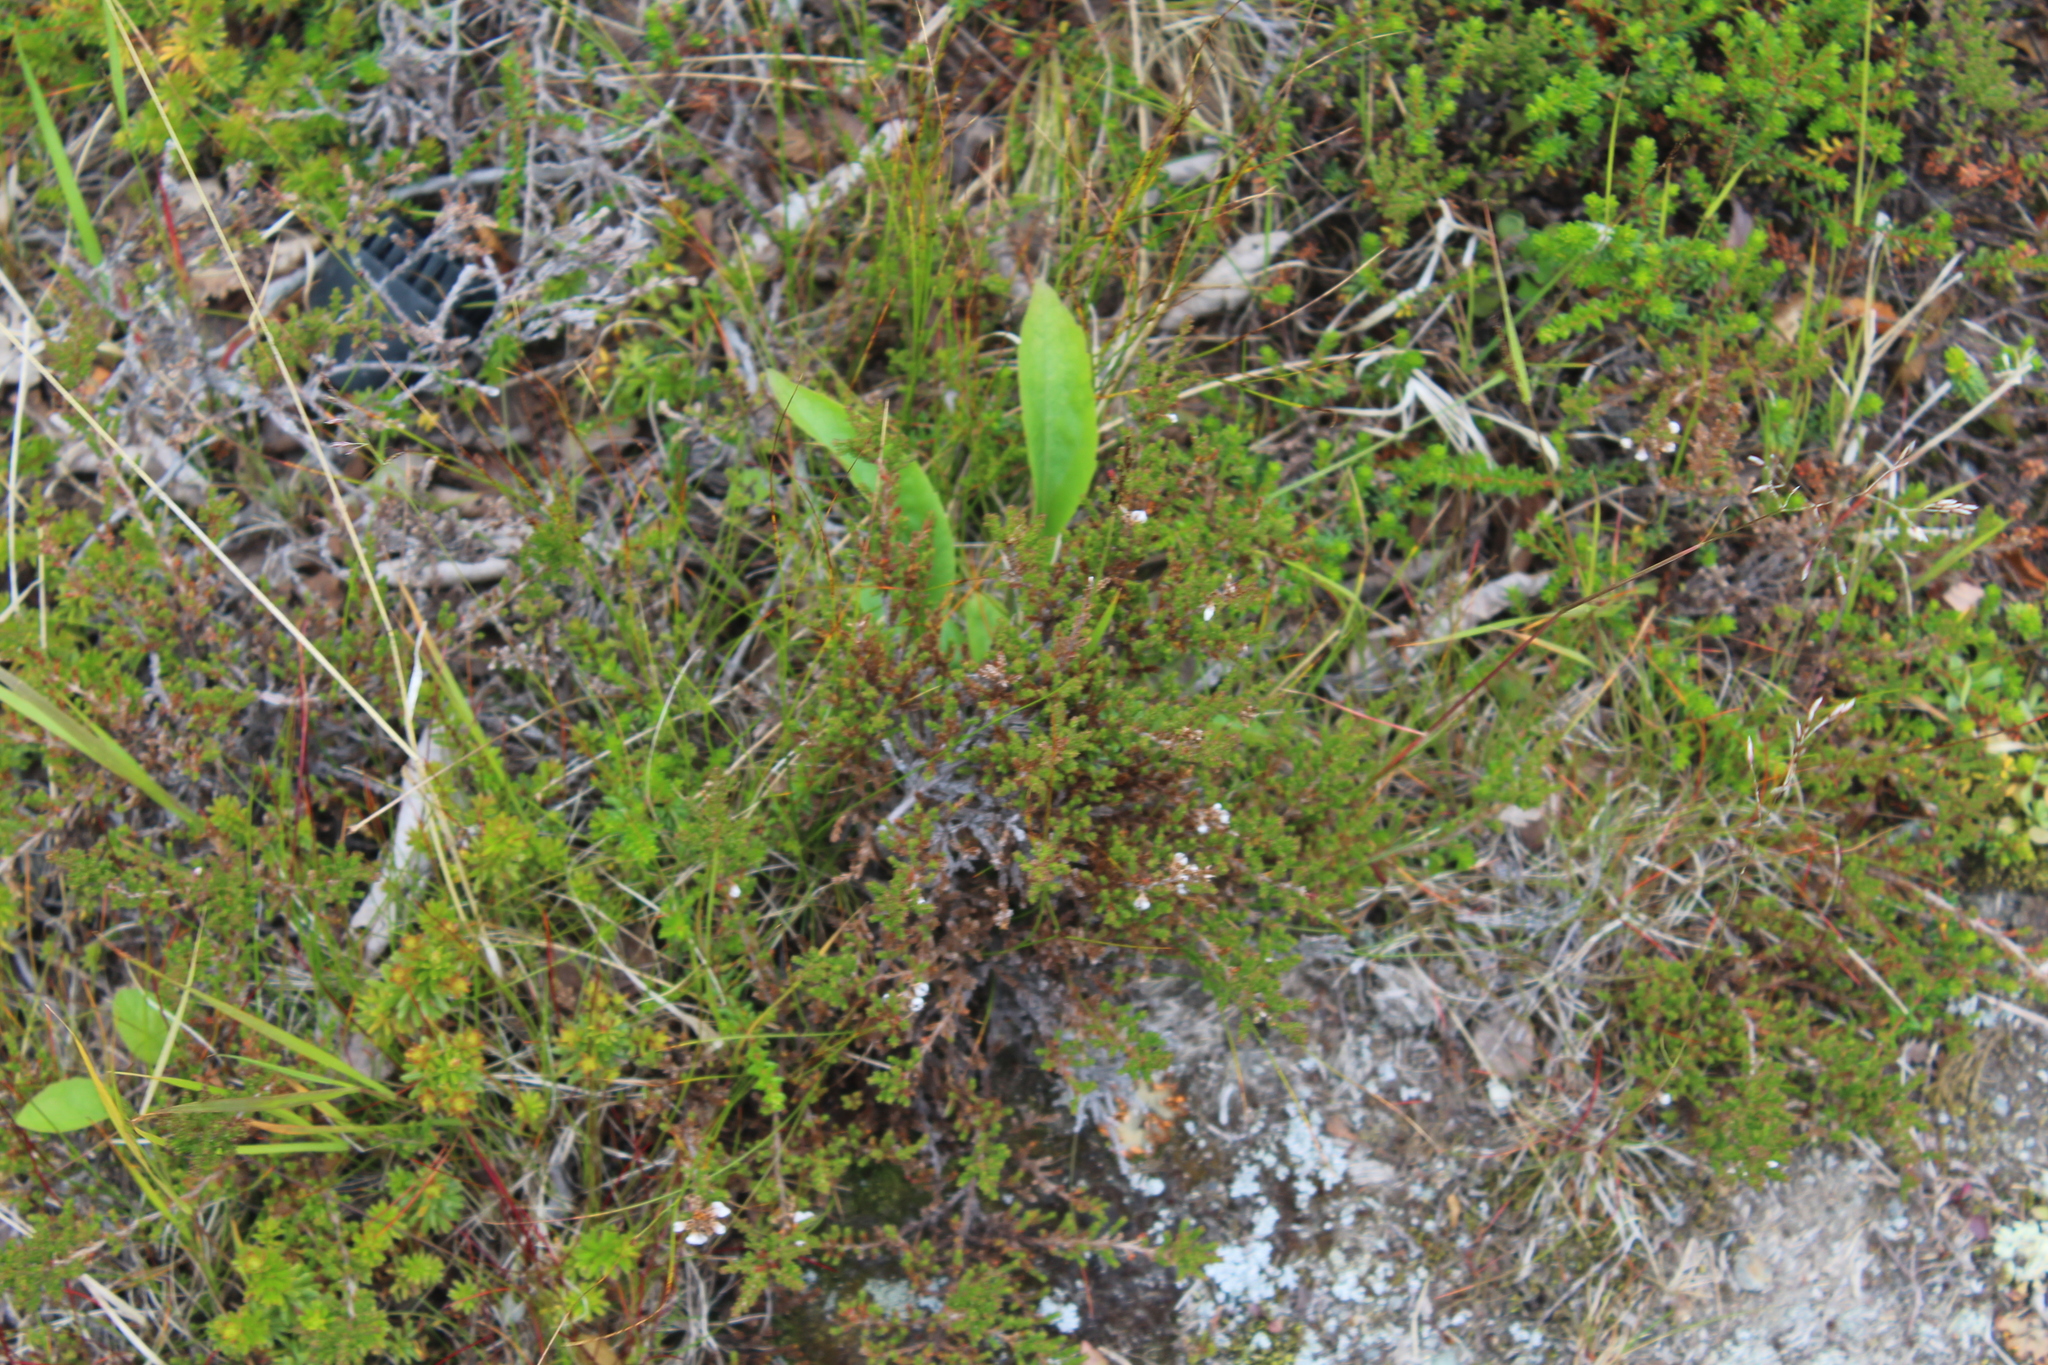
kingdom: Plantae
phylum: Tracheophyta
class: Magnoliopsida
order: Ericales
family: Ericaceae
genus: Calluna
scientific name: Calluna vulgaris
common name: Heather
